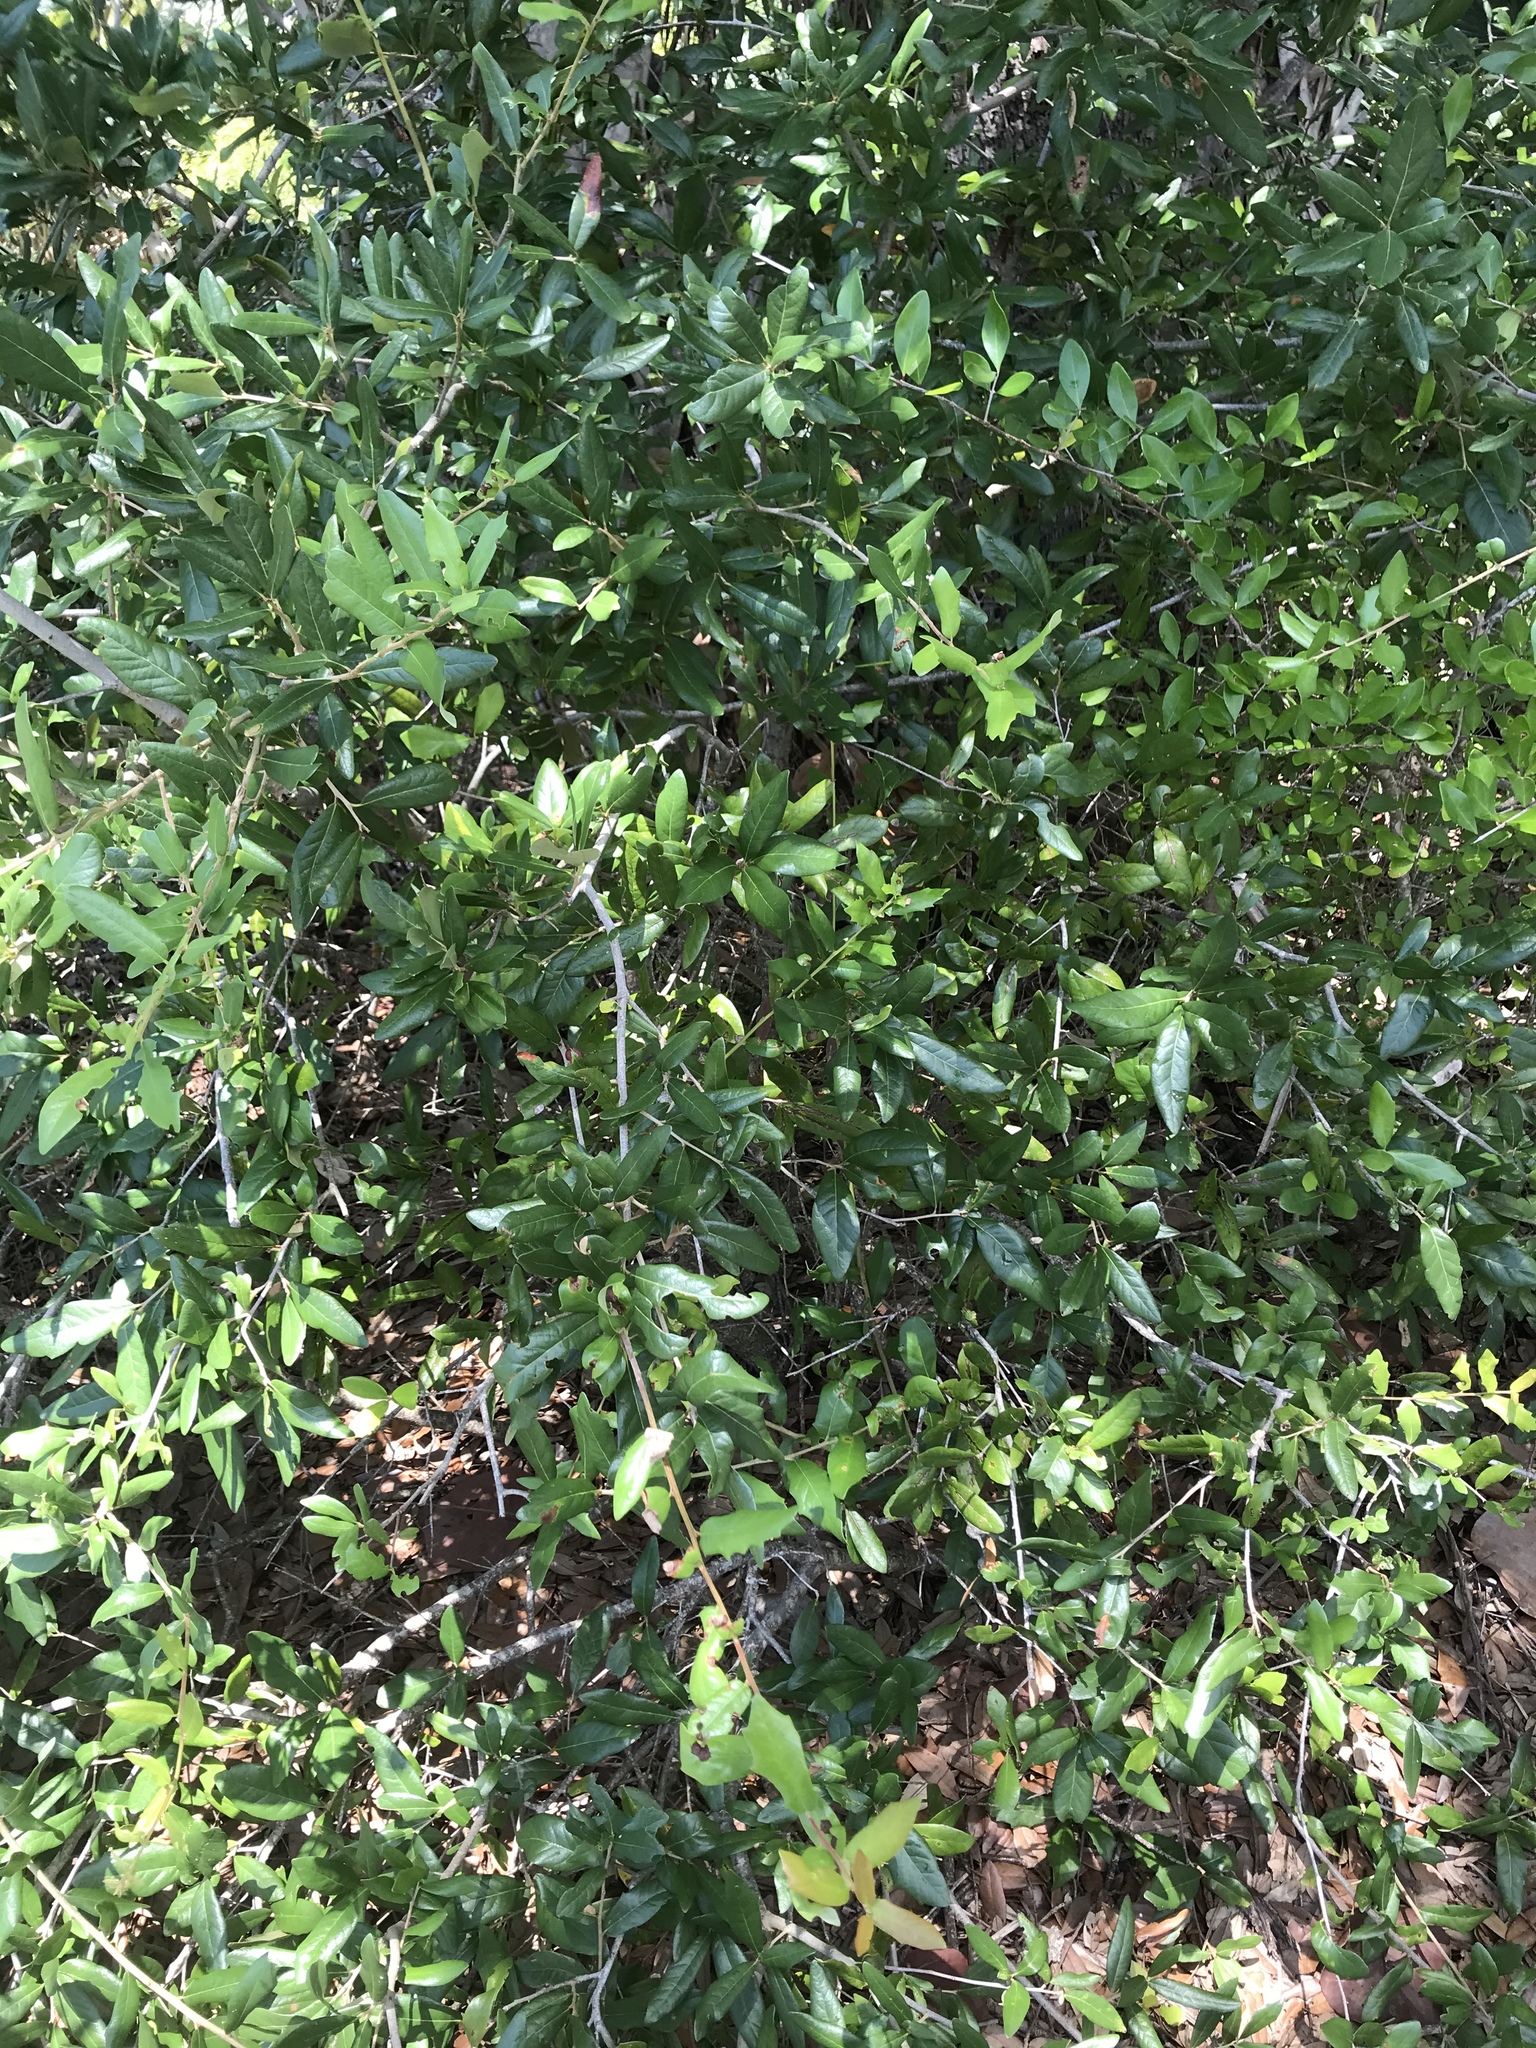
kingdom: Plantae
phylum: Tracheophyta
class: Magnoliopsida
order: Fagales
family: Fagaceae
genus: Quercus
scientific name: Quercus virginiana
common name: Southern live oak
